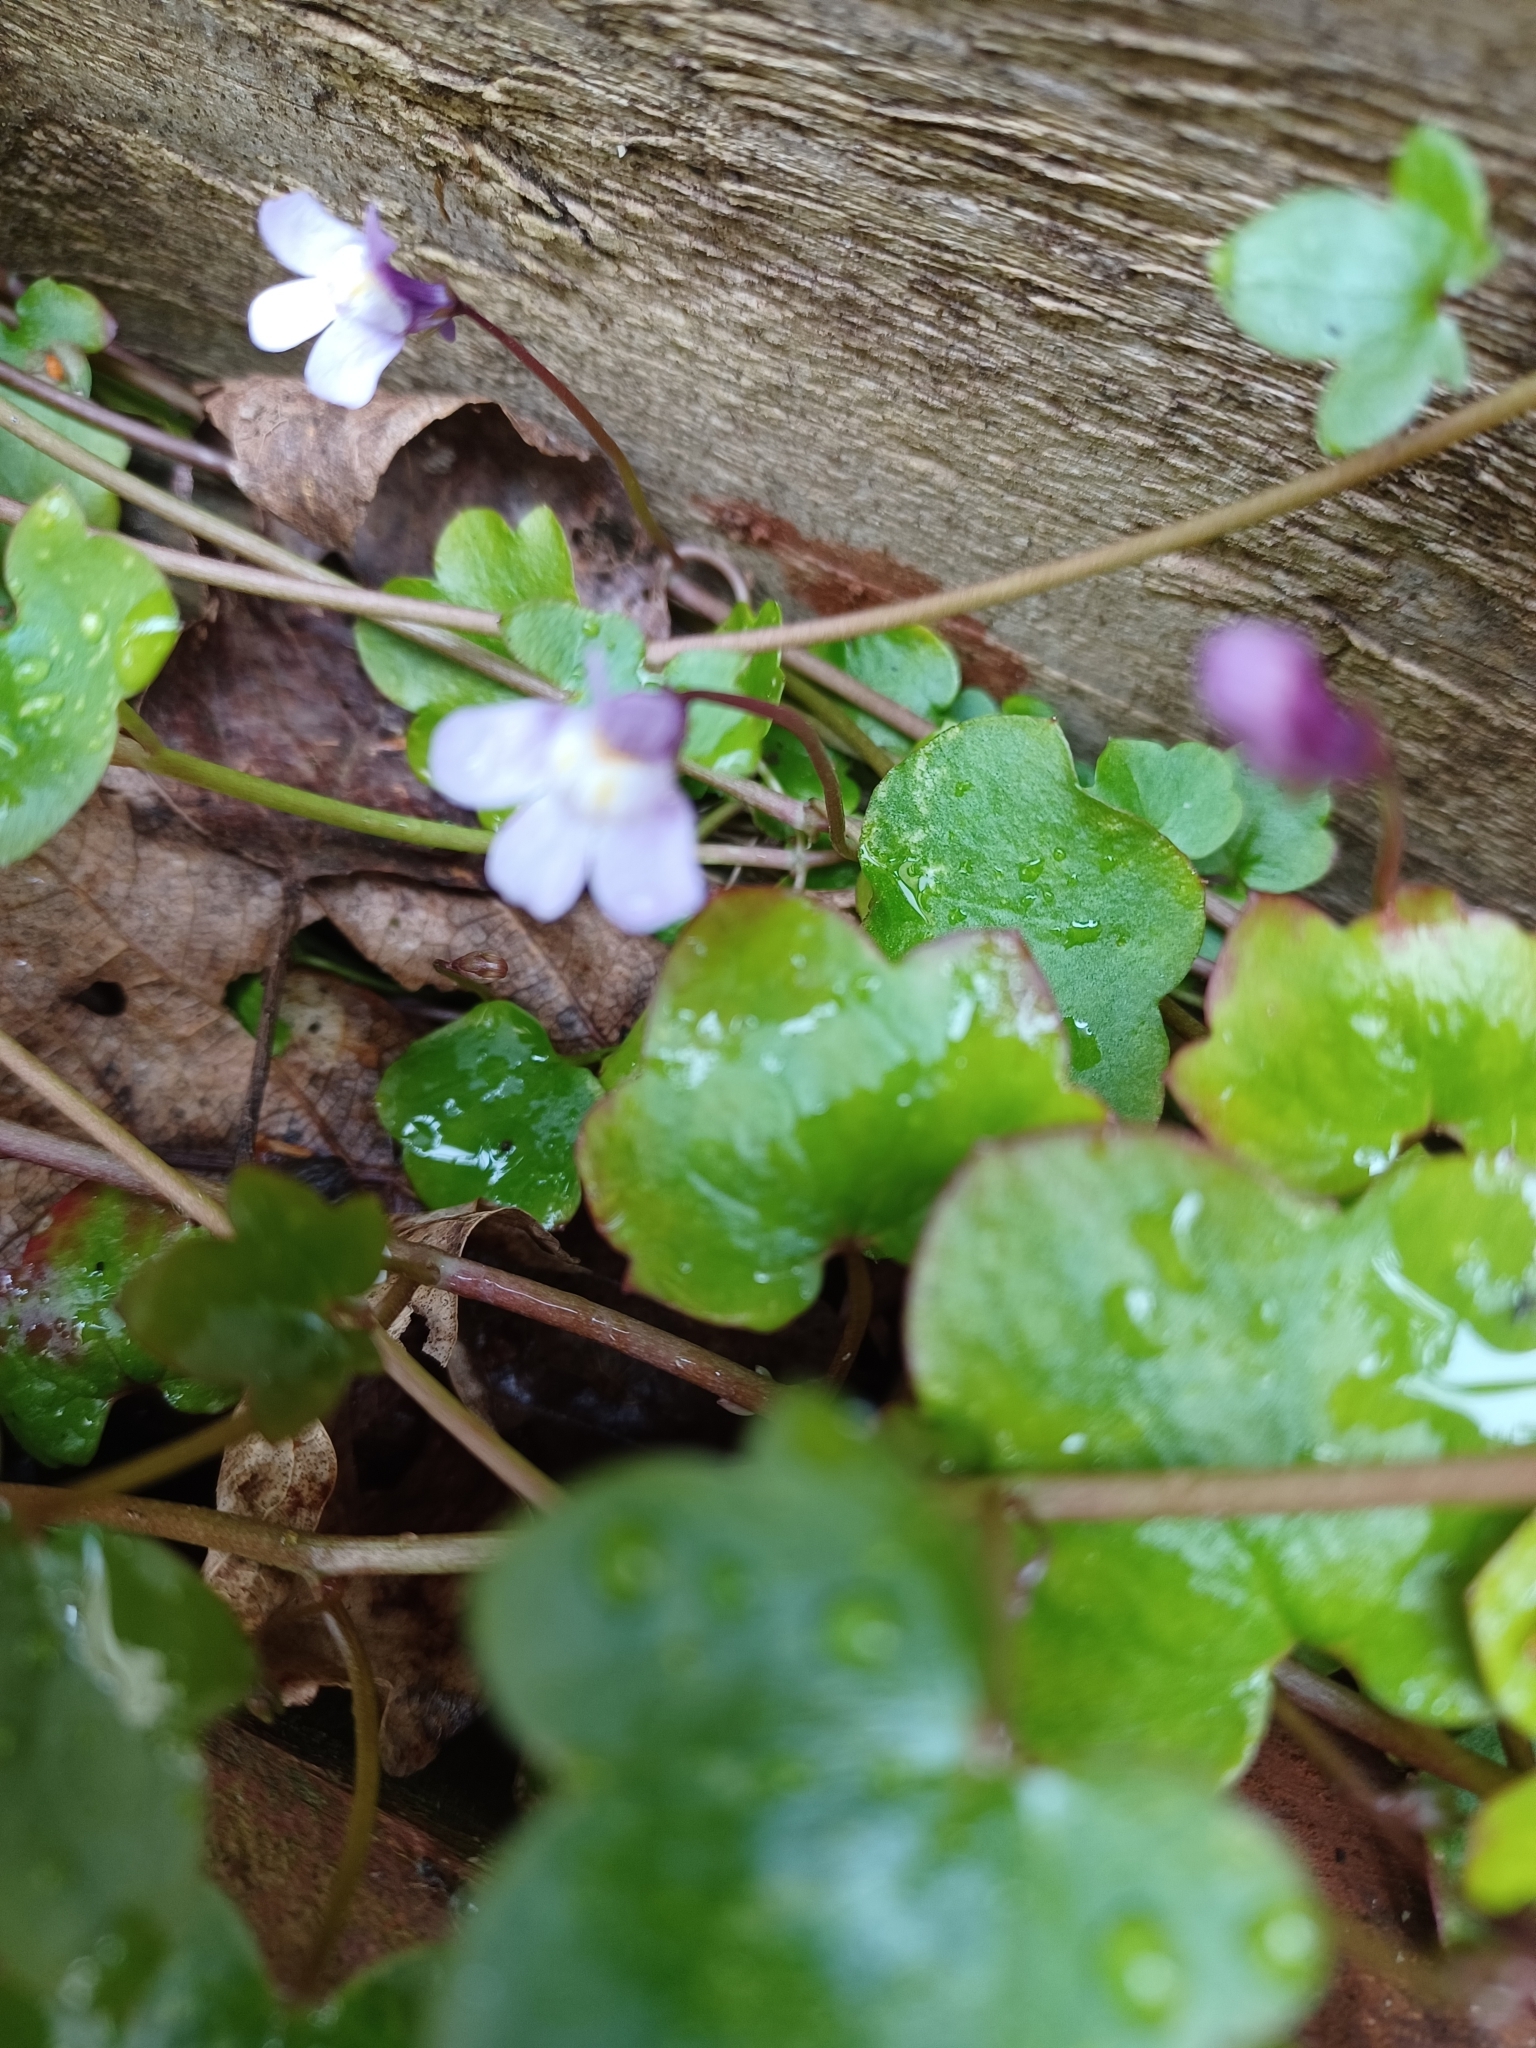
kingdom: Plantae
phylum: Tracheophyta
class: Magnoliopsida
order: Lamiales
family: Plantaginaceae
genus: Cymbalaria
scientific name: Cymbalaria muralis
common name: Ivy-leaved toadflax
